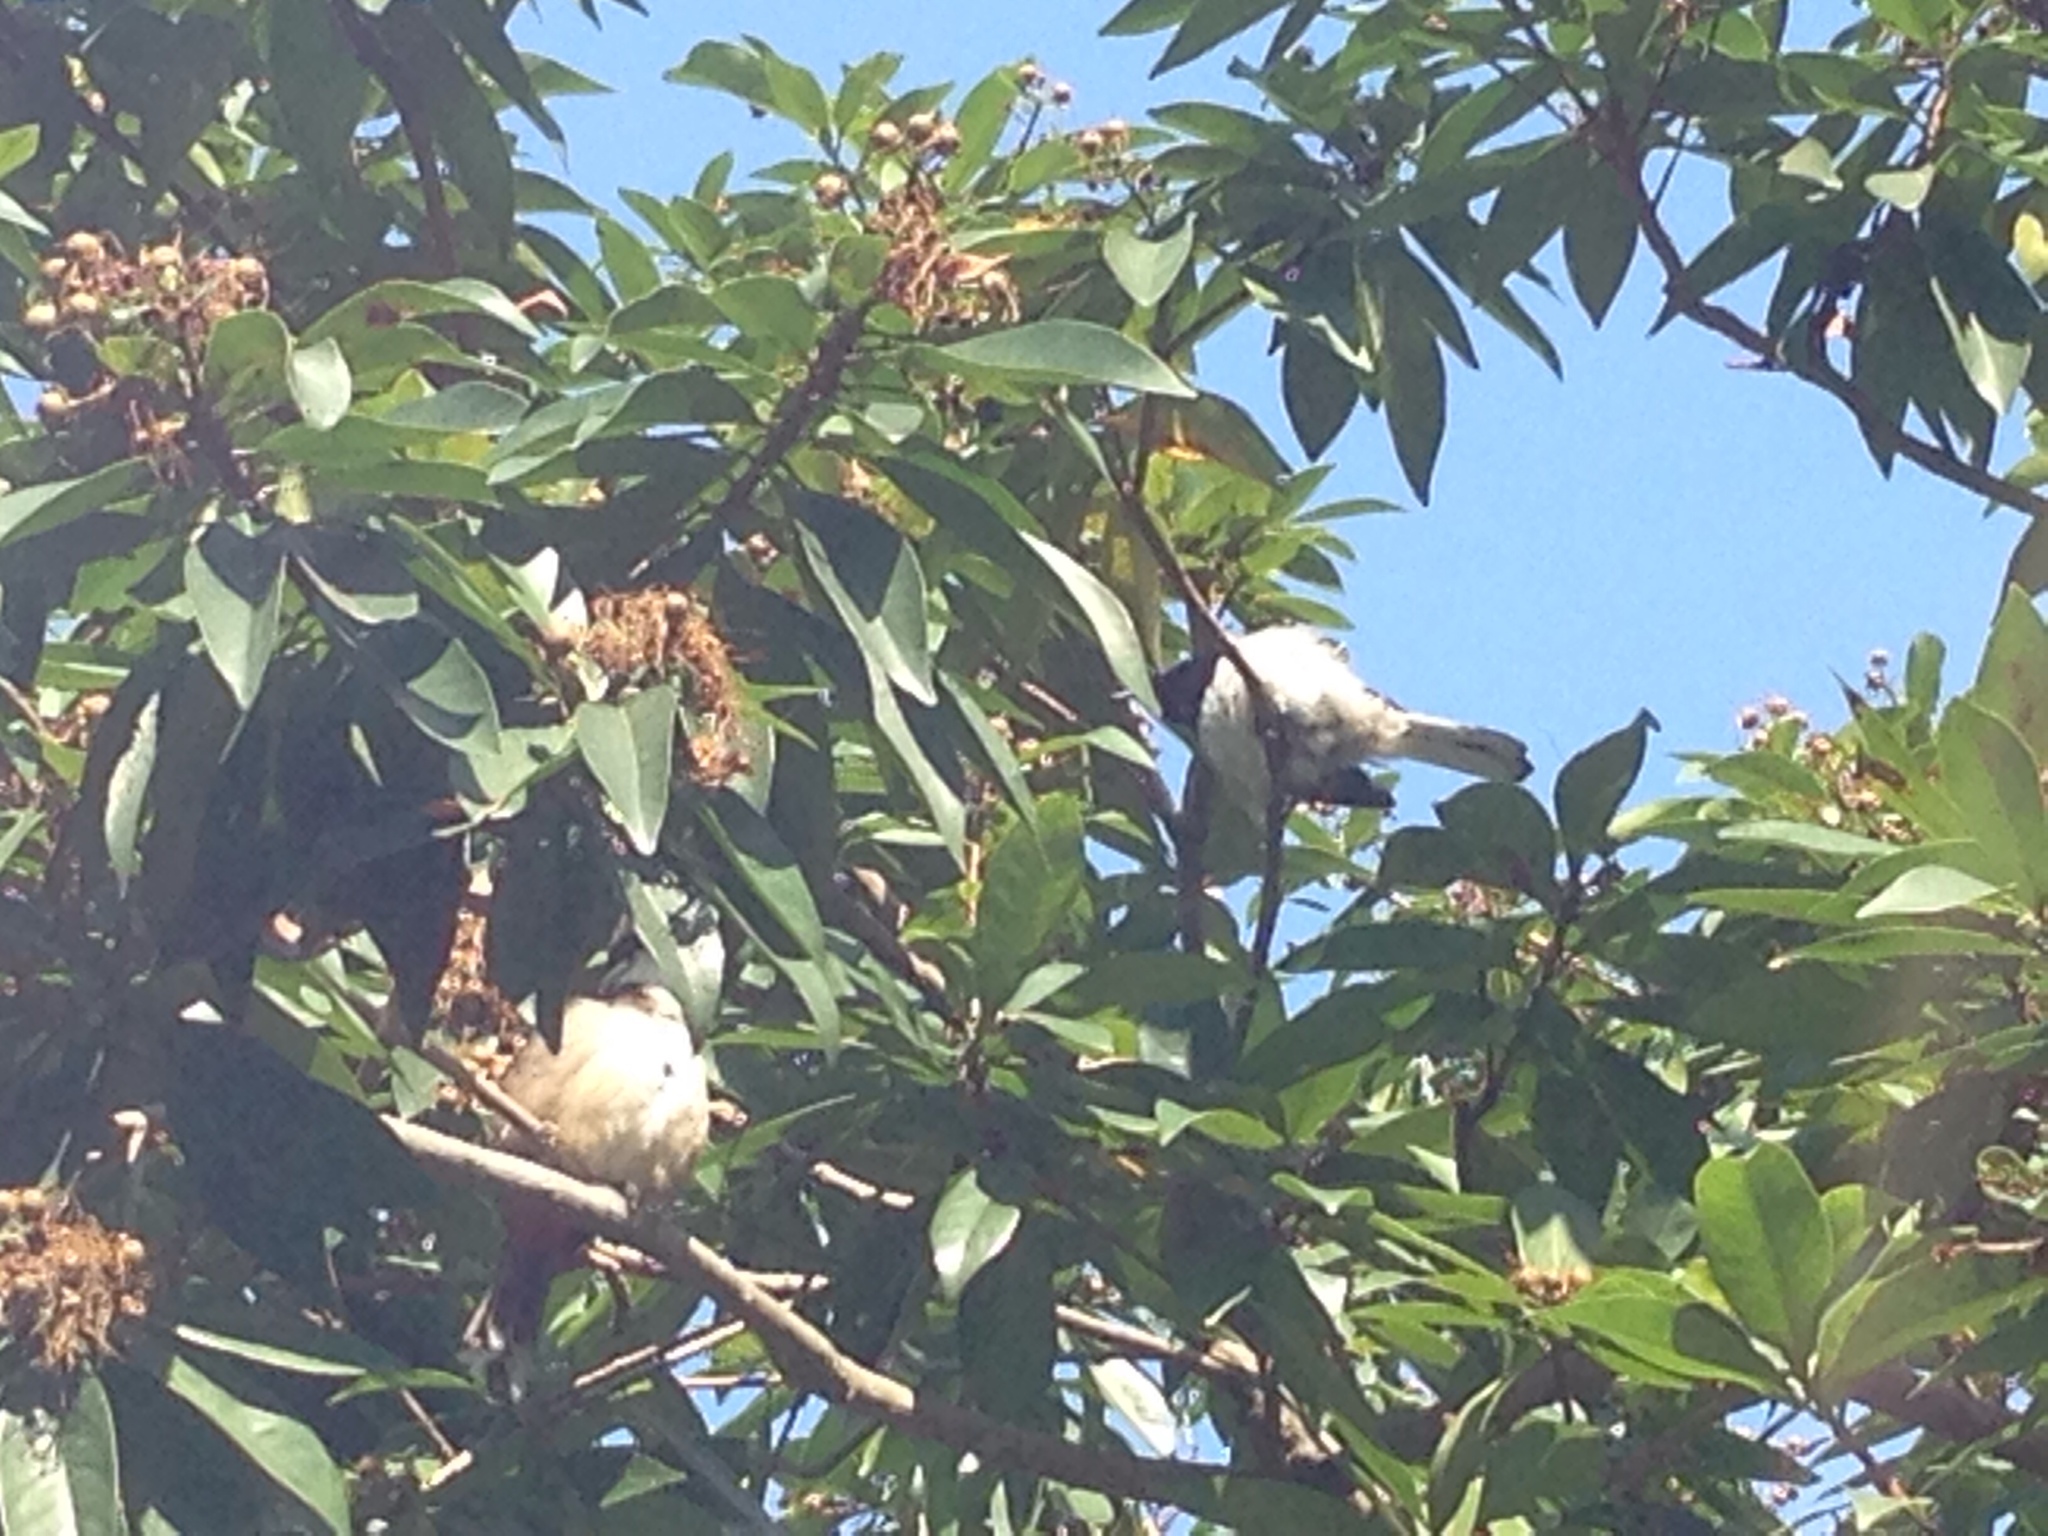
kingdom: Animalia
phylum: Chordata
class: Aves
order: Passeriformes
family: Pycnonotidae
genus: Pycnonotus
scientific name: Pycnonotus jocosus
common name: Red-whiskered bulbul
